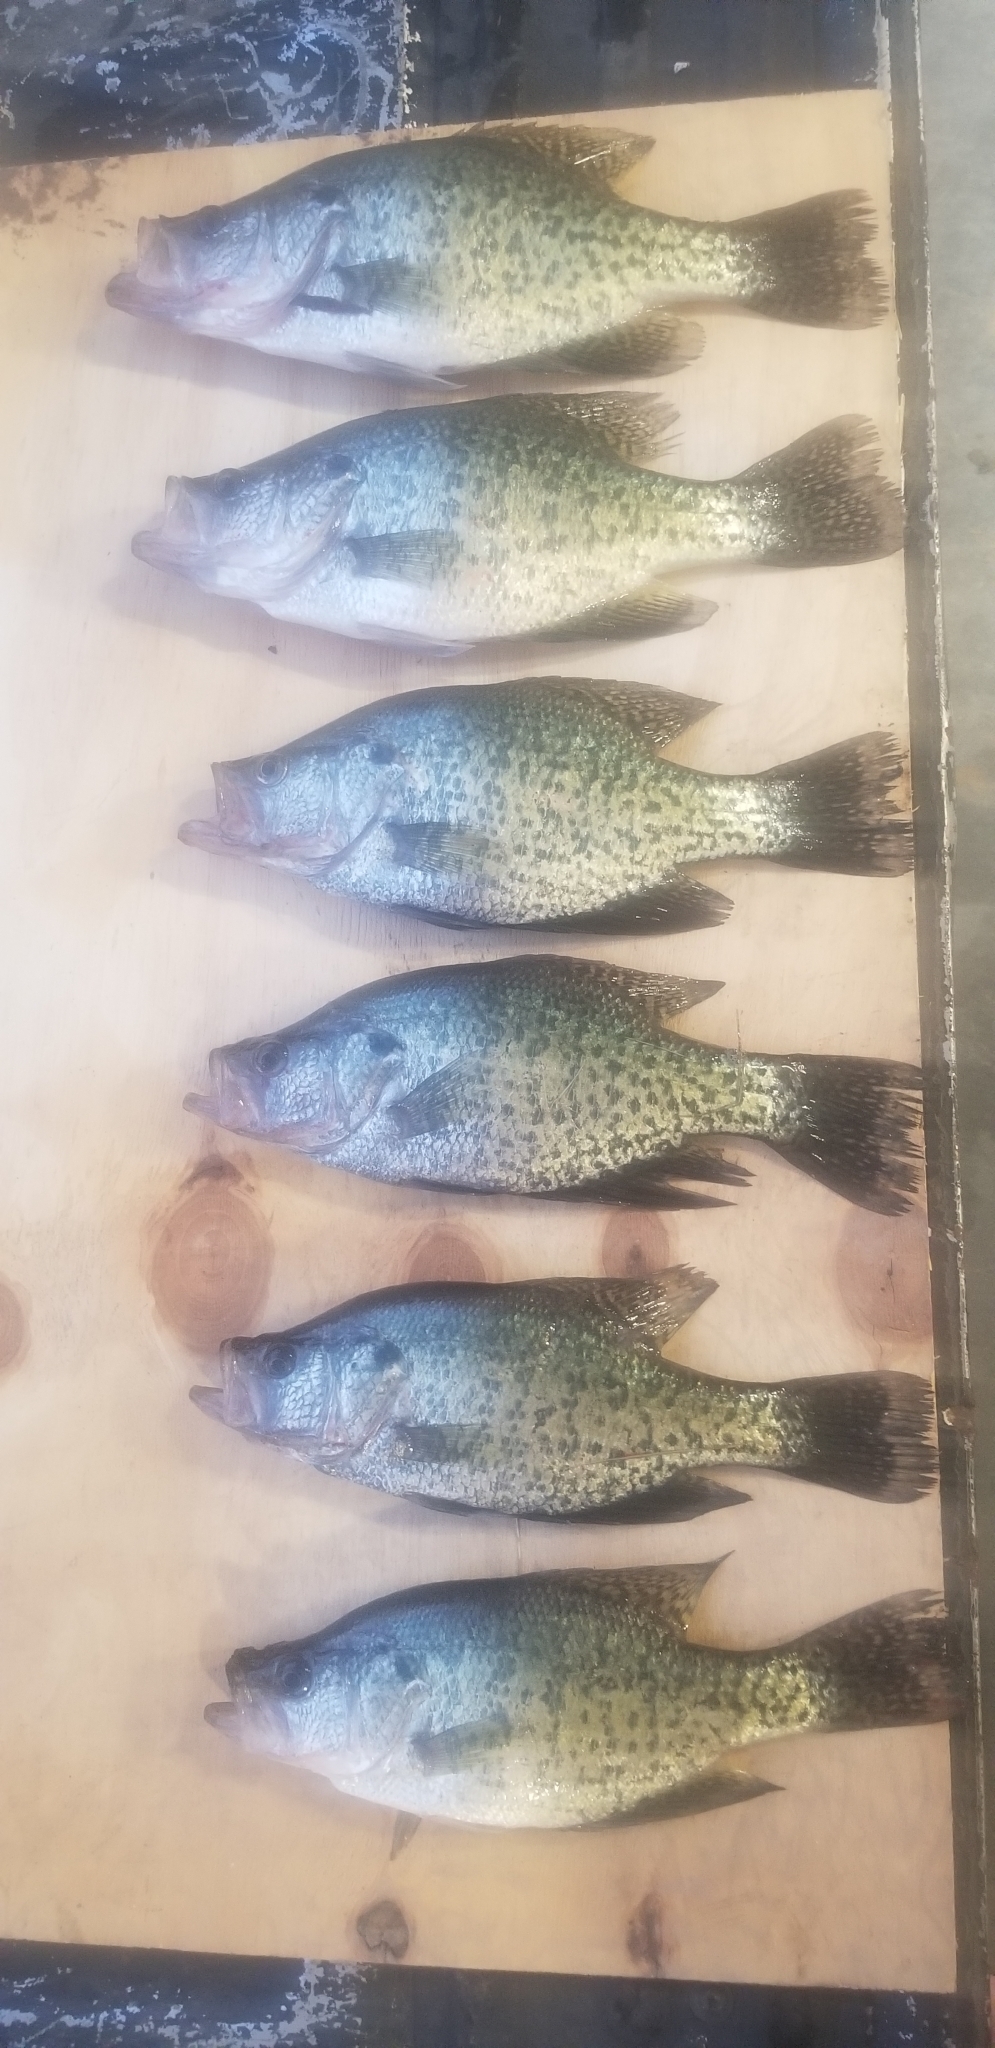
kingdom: Animalia
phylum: Chordata
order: Perciformes
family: Centrarchidae
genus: Pomoxis
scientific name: Pomoxis annularis
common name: White crappie
